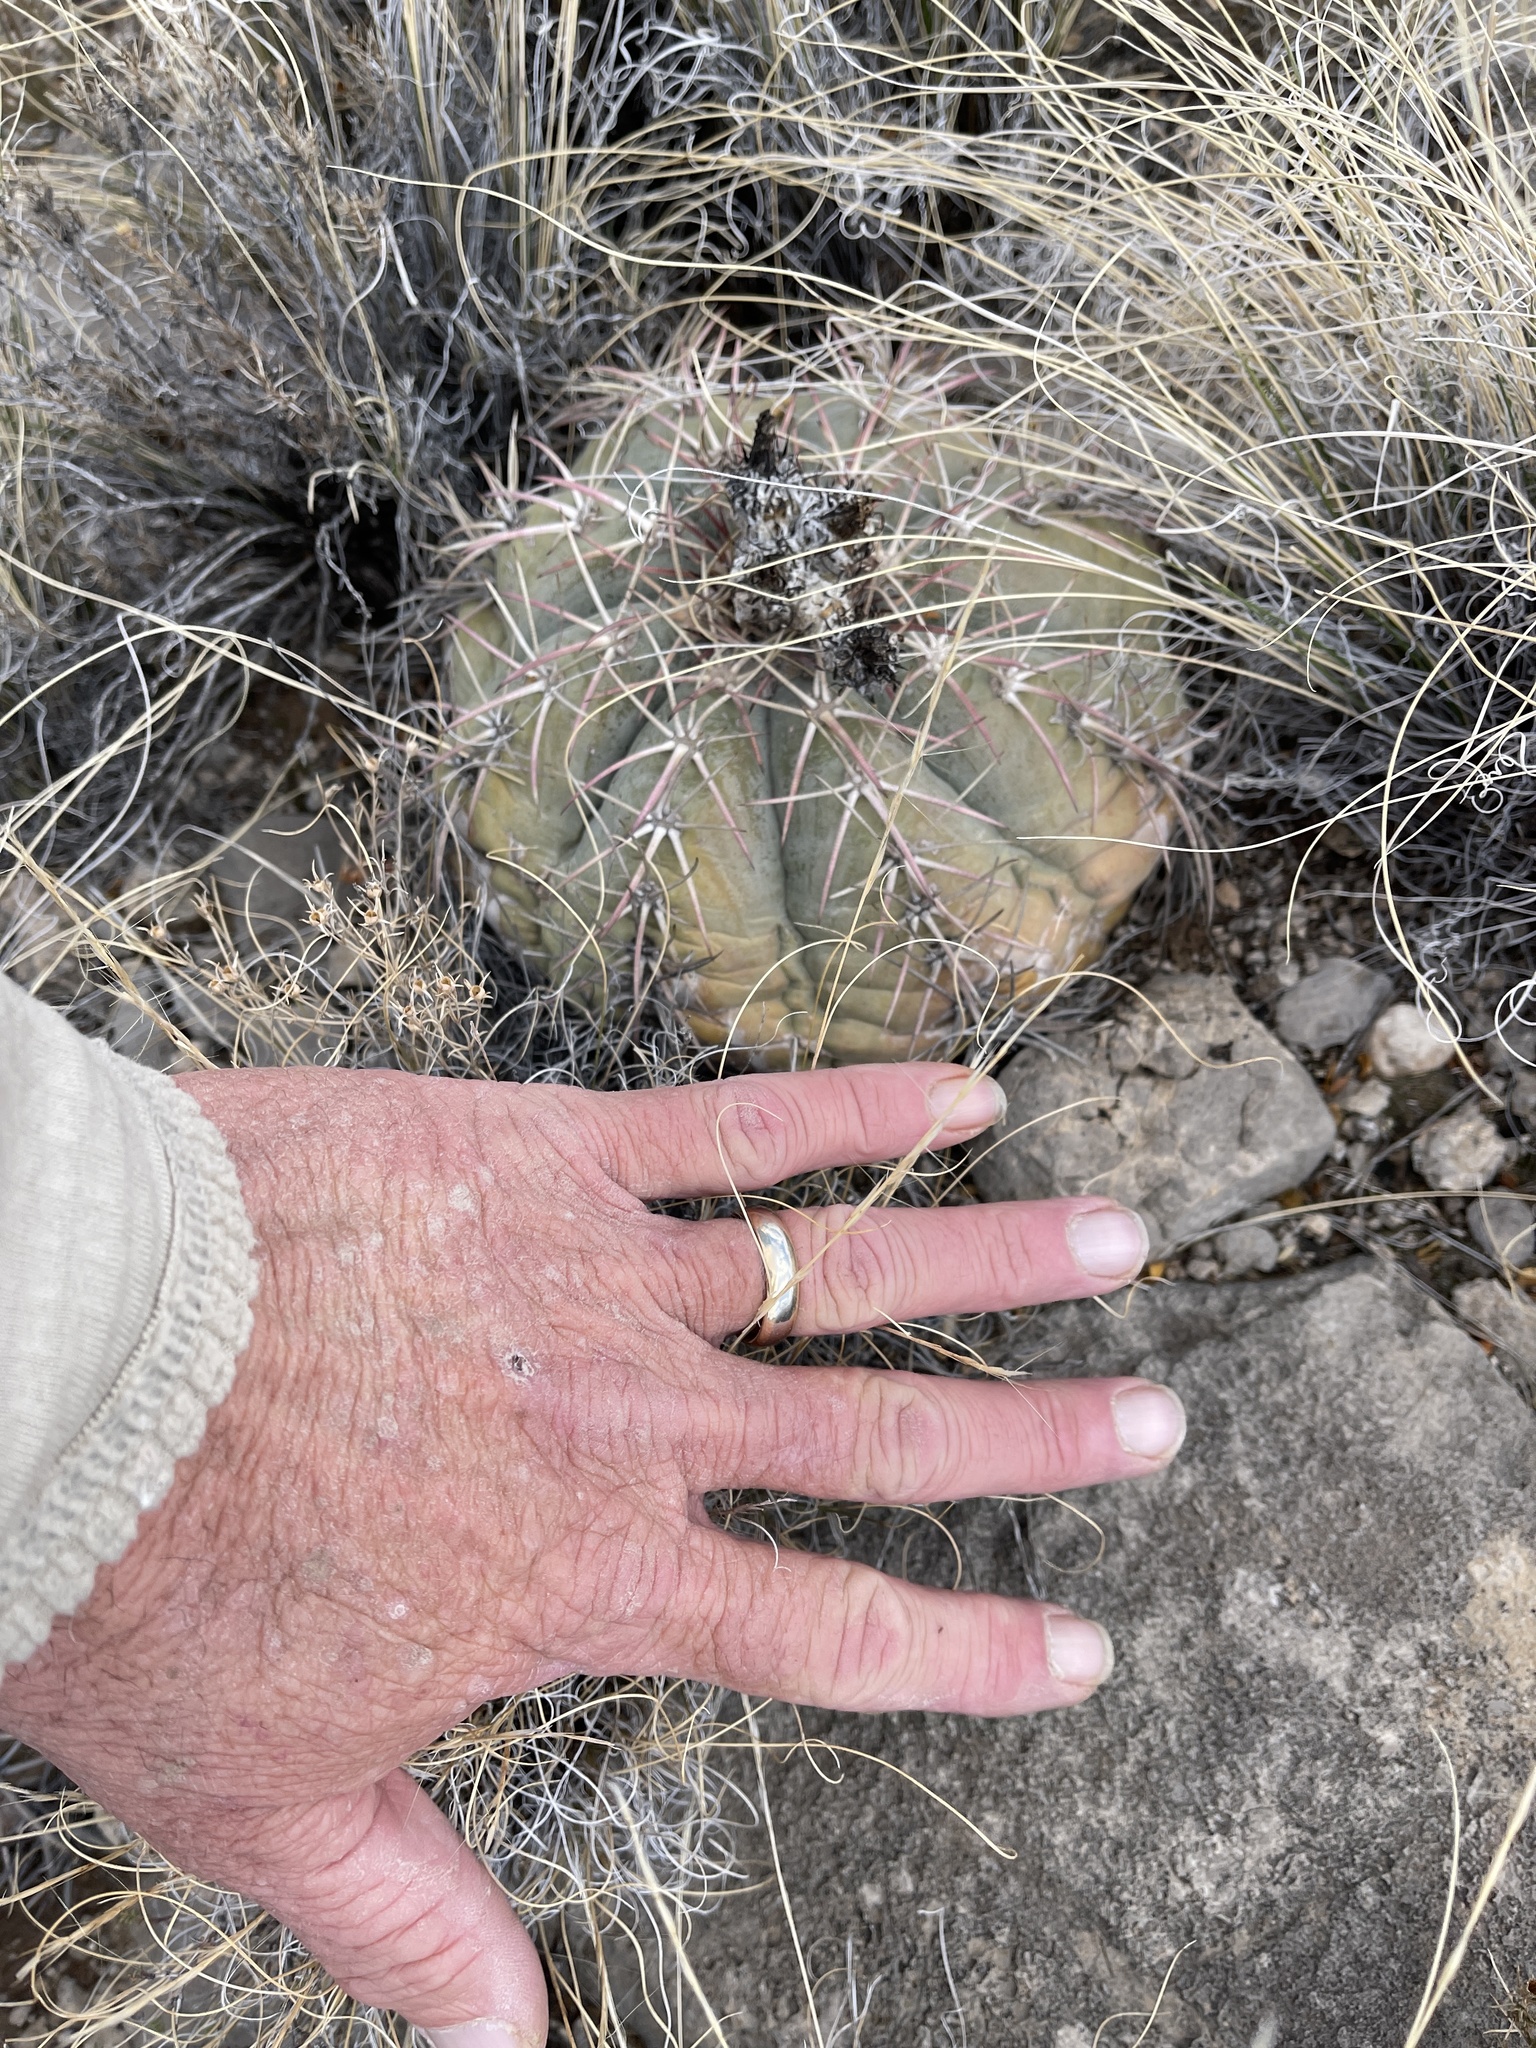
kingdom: Plantae
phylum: Tracheophyta
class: Magnoliopsida
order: Caryophyllales
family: Cactaceae
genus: Echinocactus
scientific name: Echinocactus horizonthalonius
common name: Devilshead
